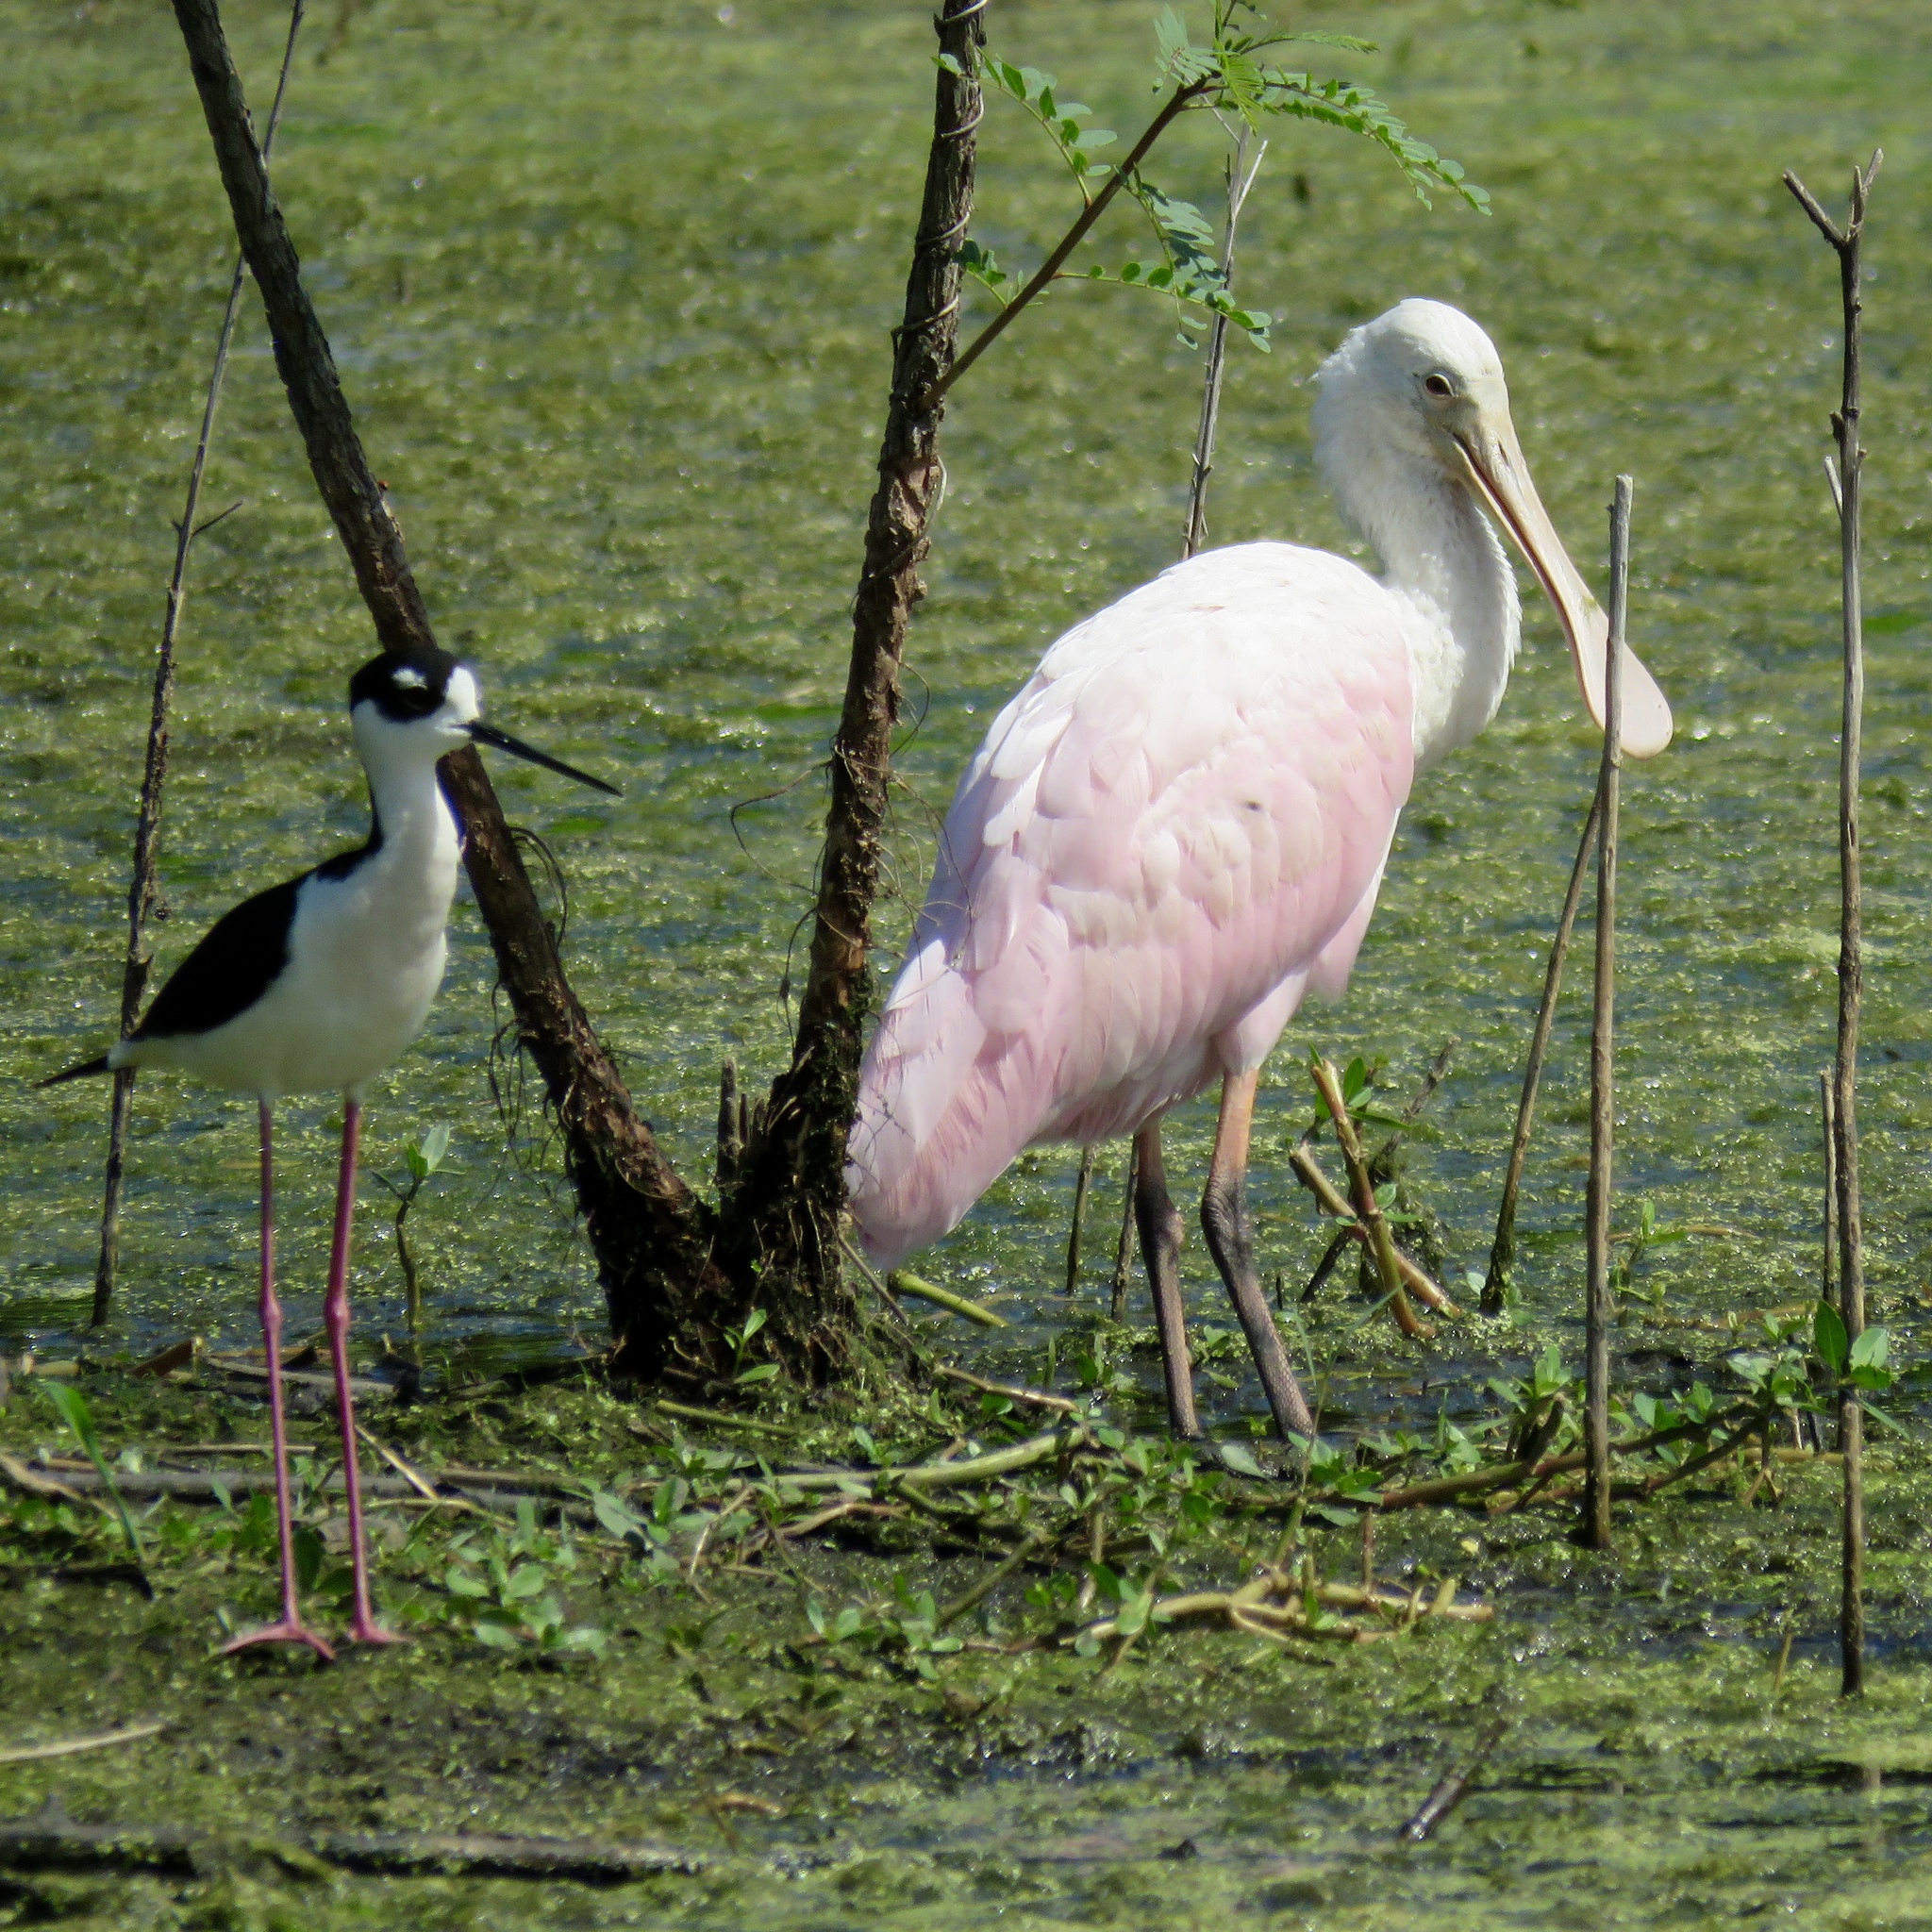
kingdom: Animalia
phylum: Chordata
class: Aves
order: Pelecaniformes
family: Threskiornithidae
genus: Platalea
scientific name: Platalea ajaja
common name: Roseate spoonbill
